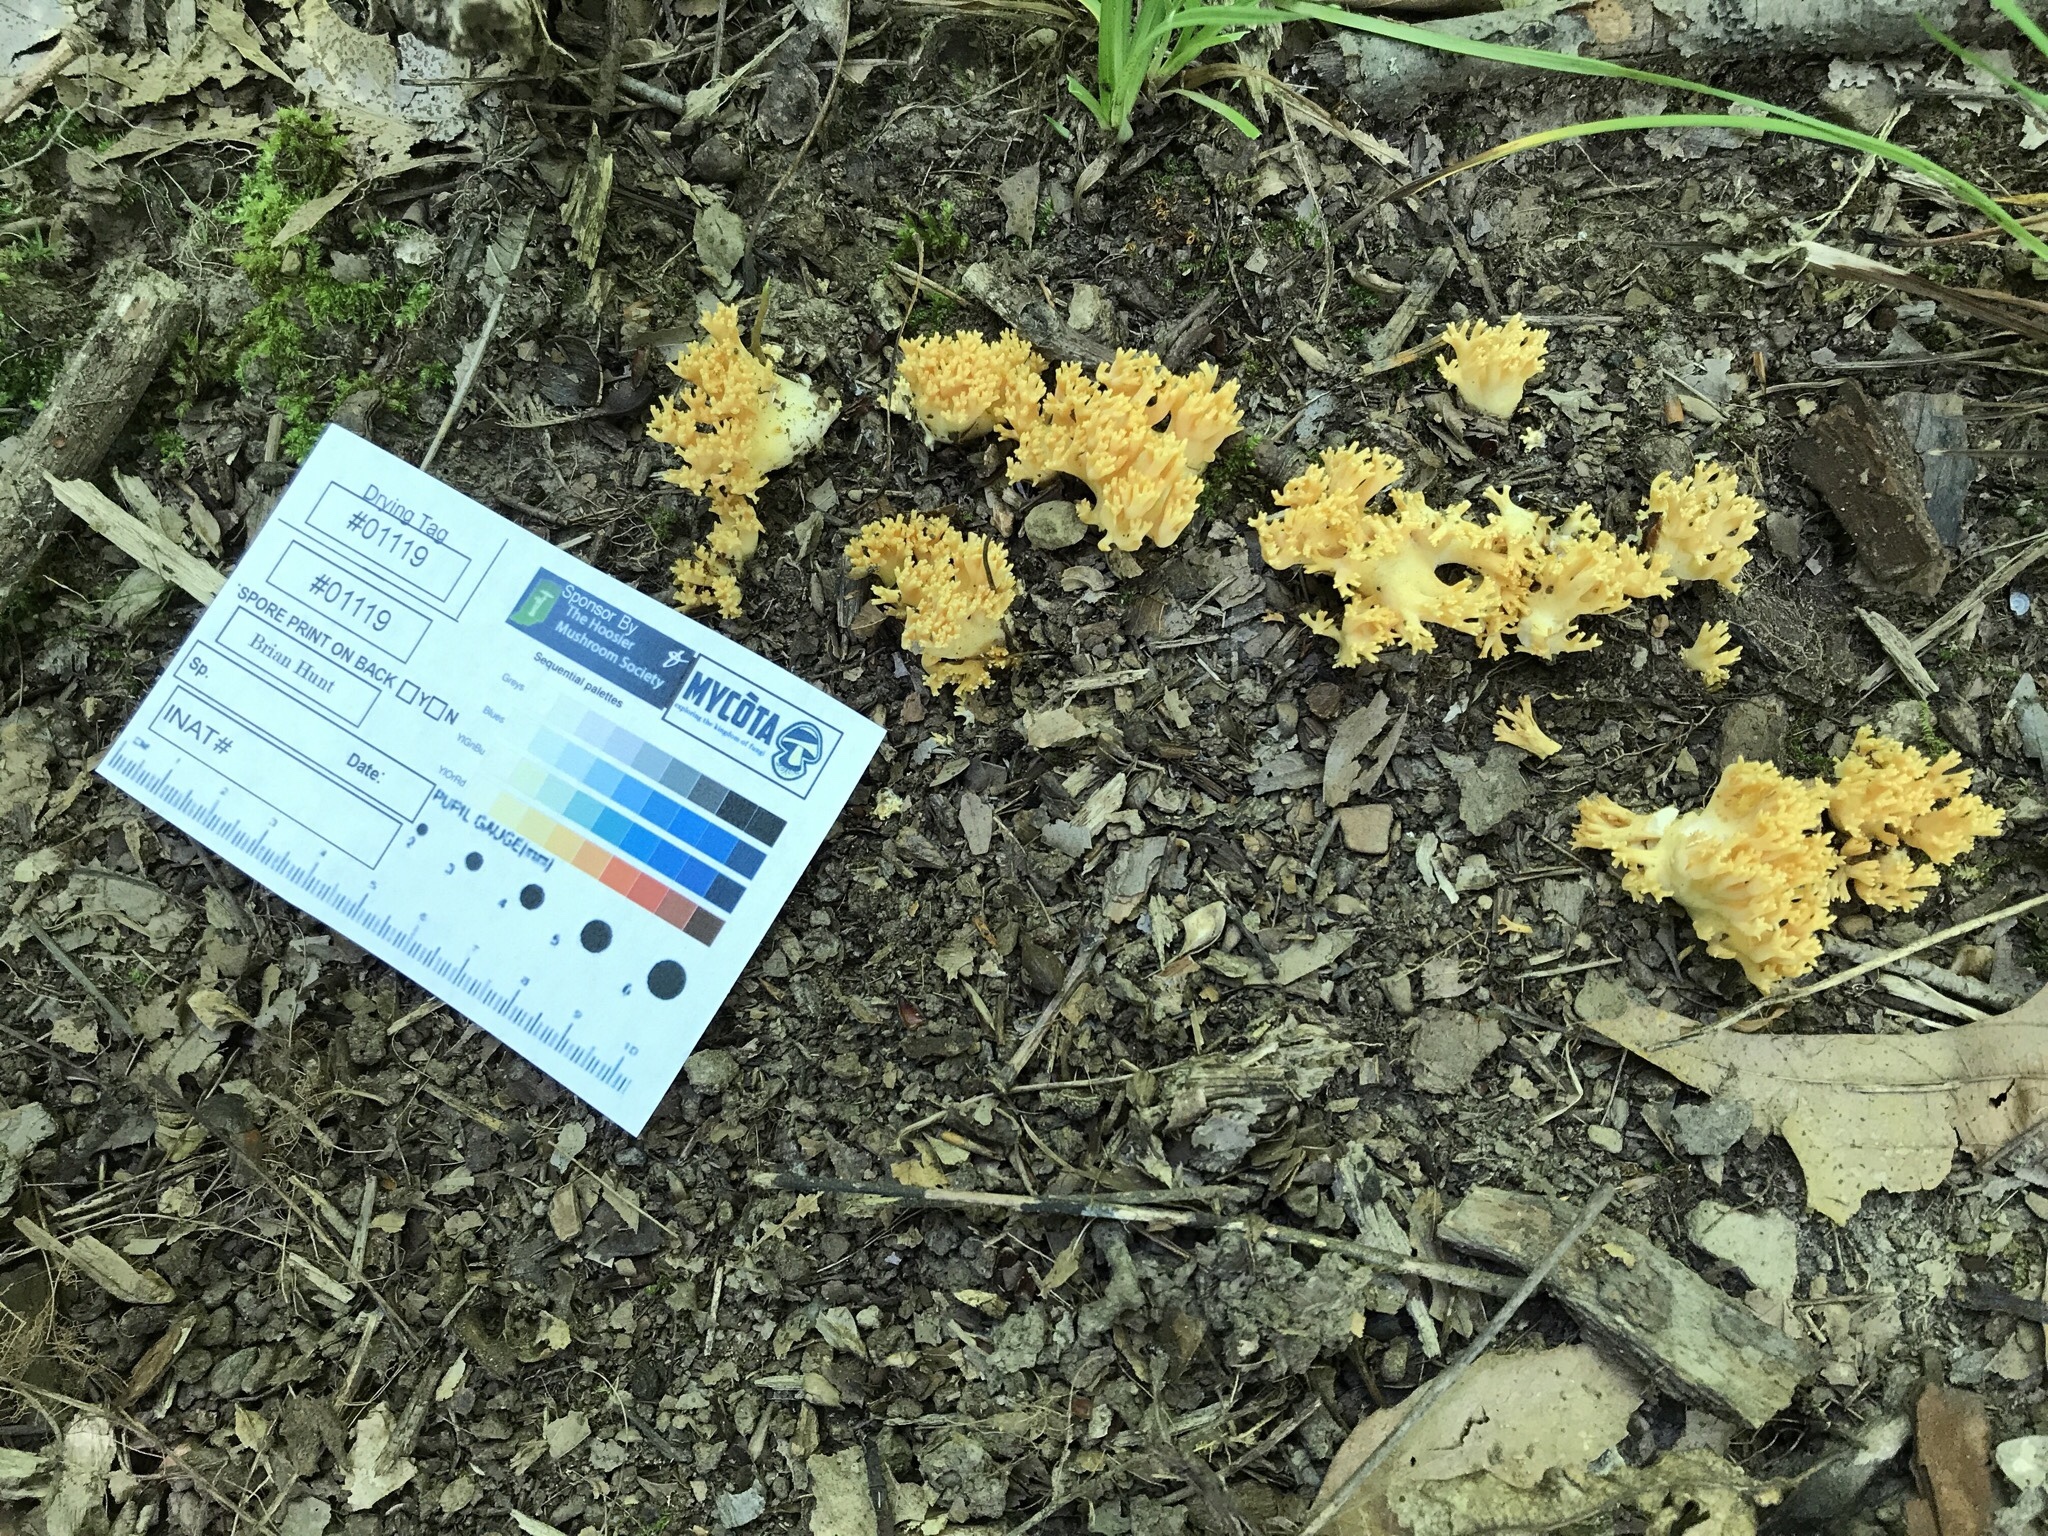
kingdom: Fungi
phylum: Basidiomycota
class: Agaricomycetes
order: Gomphales
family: Gomphaceae
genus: Ramaria
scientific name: Ramaria calvodistalis
